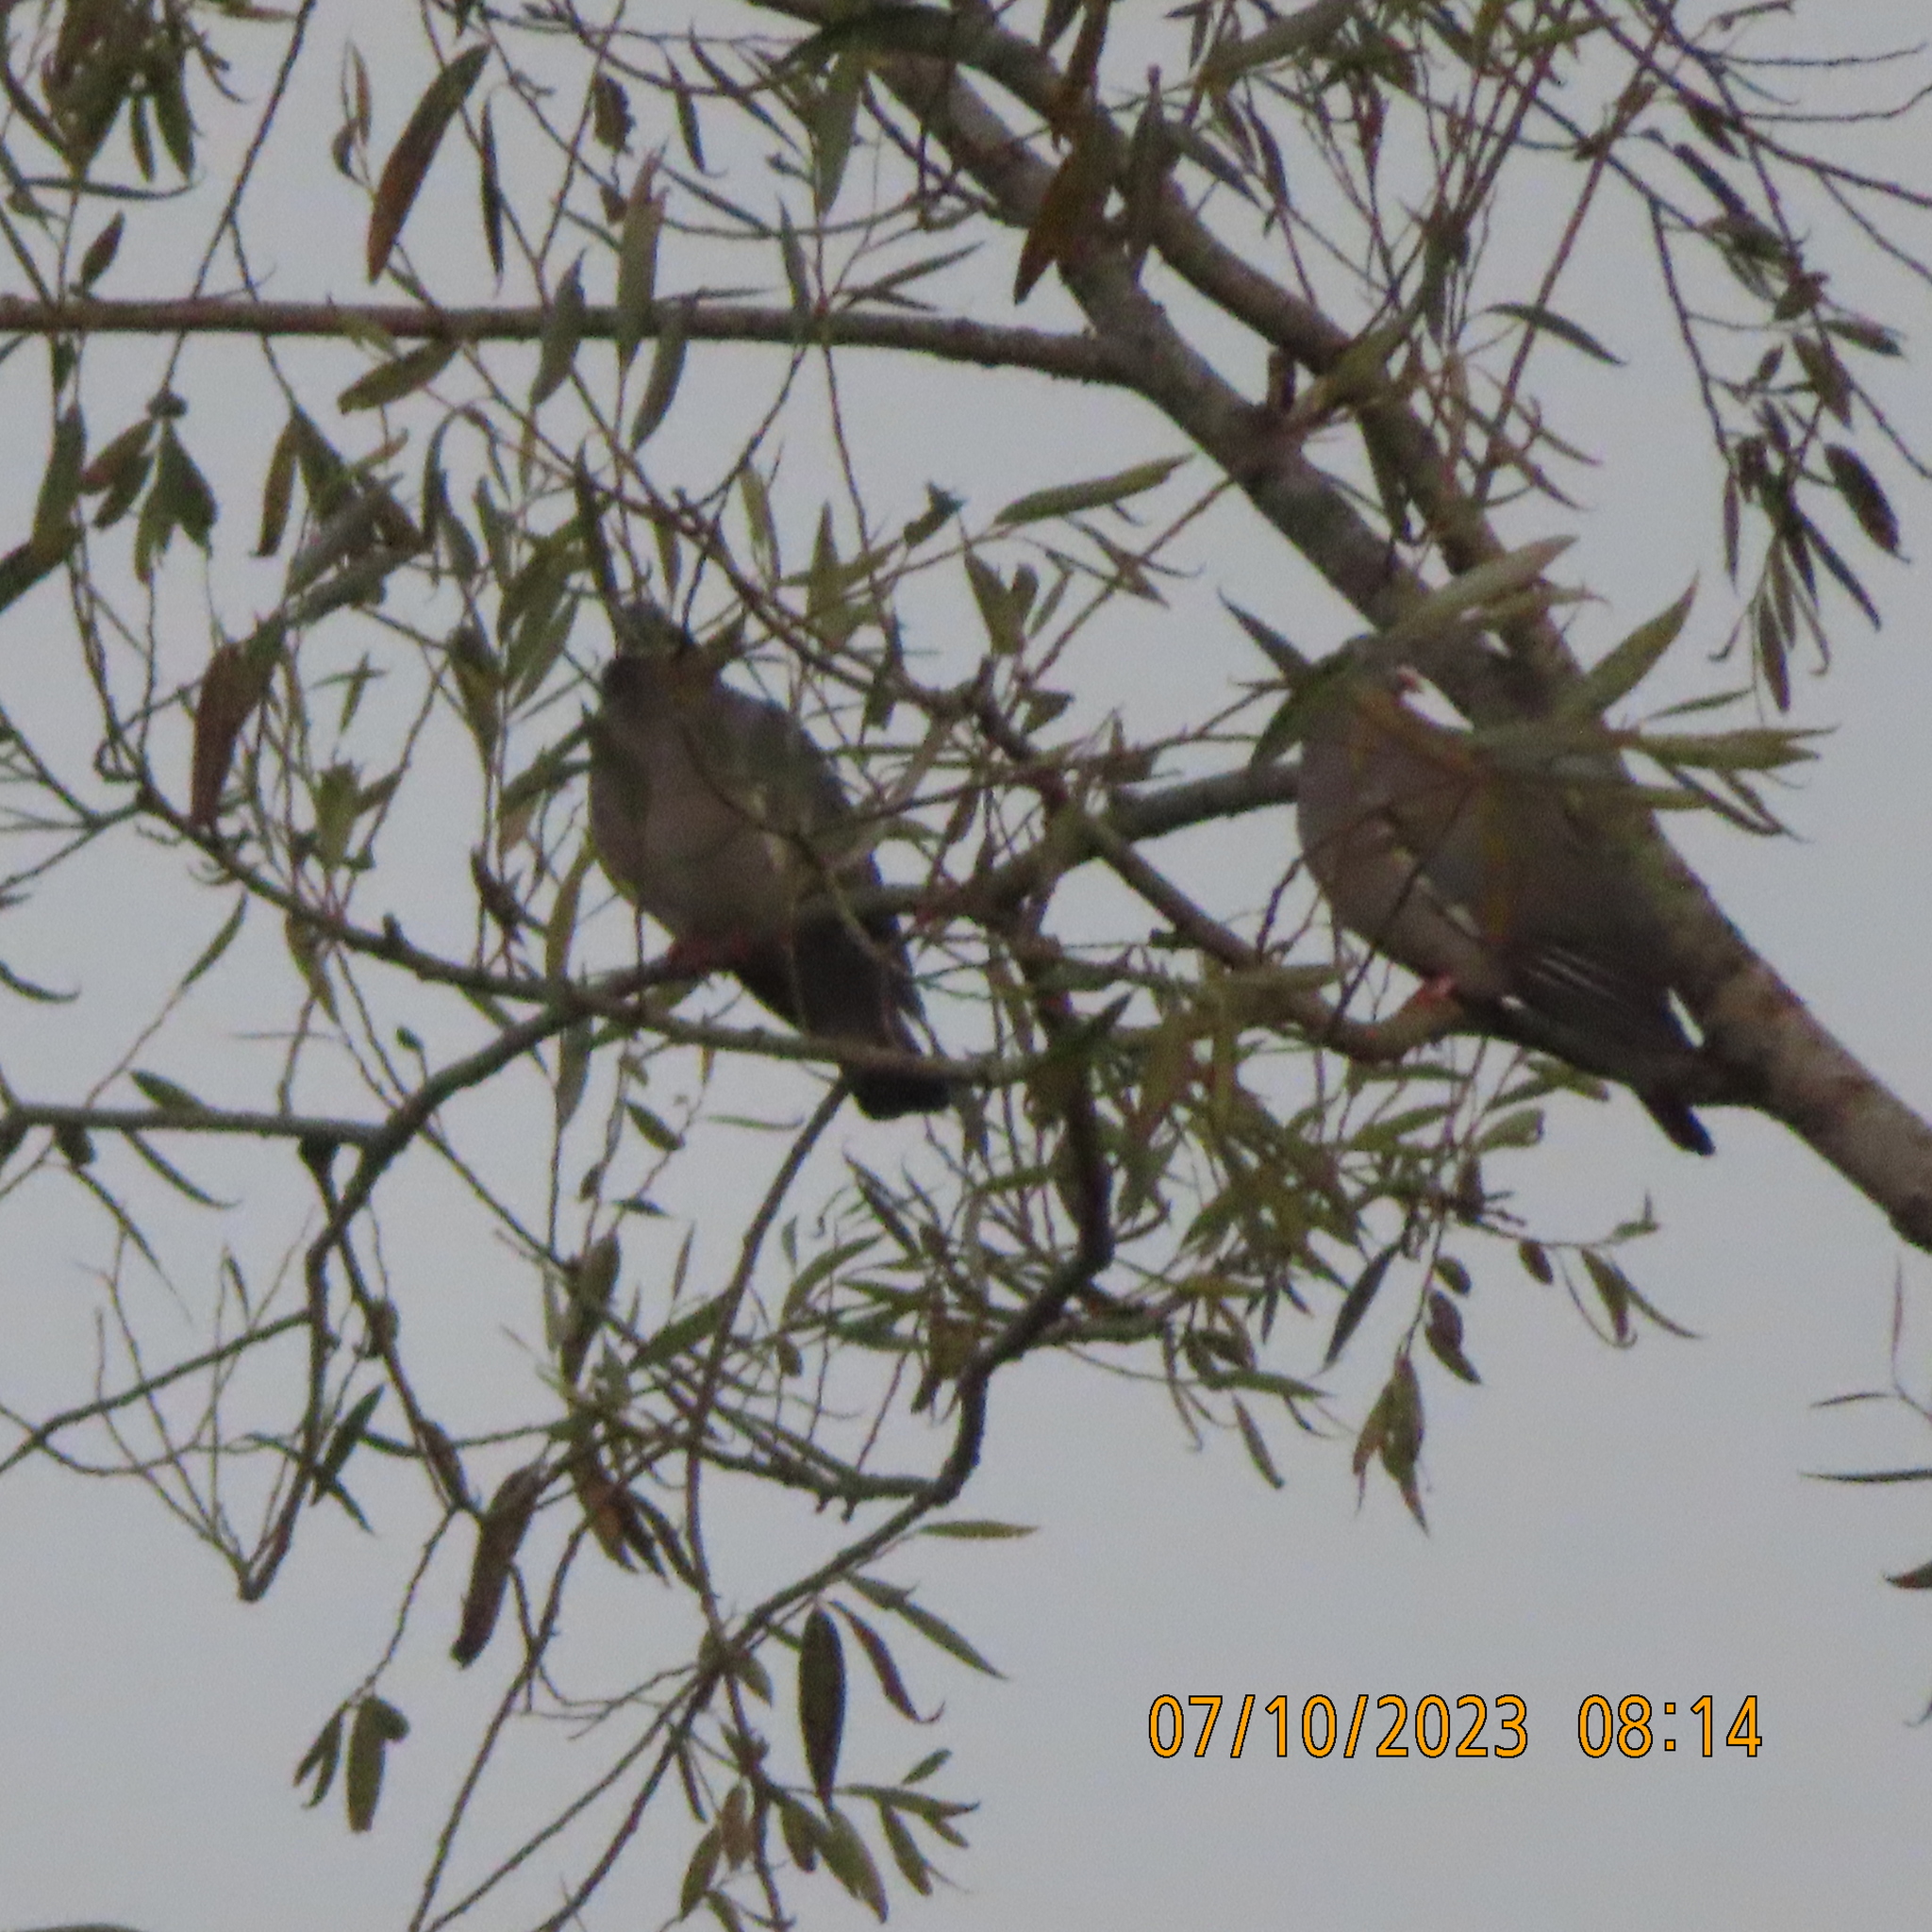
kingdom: Animalia
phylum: Chordata
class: Aves
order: Columbiformes
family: Columbidae
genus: Columba
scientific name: Columba palumbus
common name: Common wood pigeon
